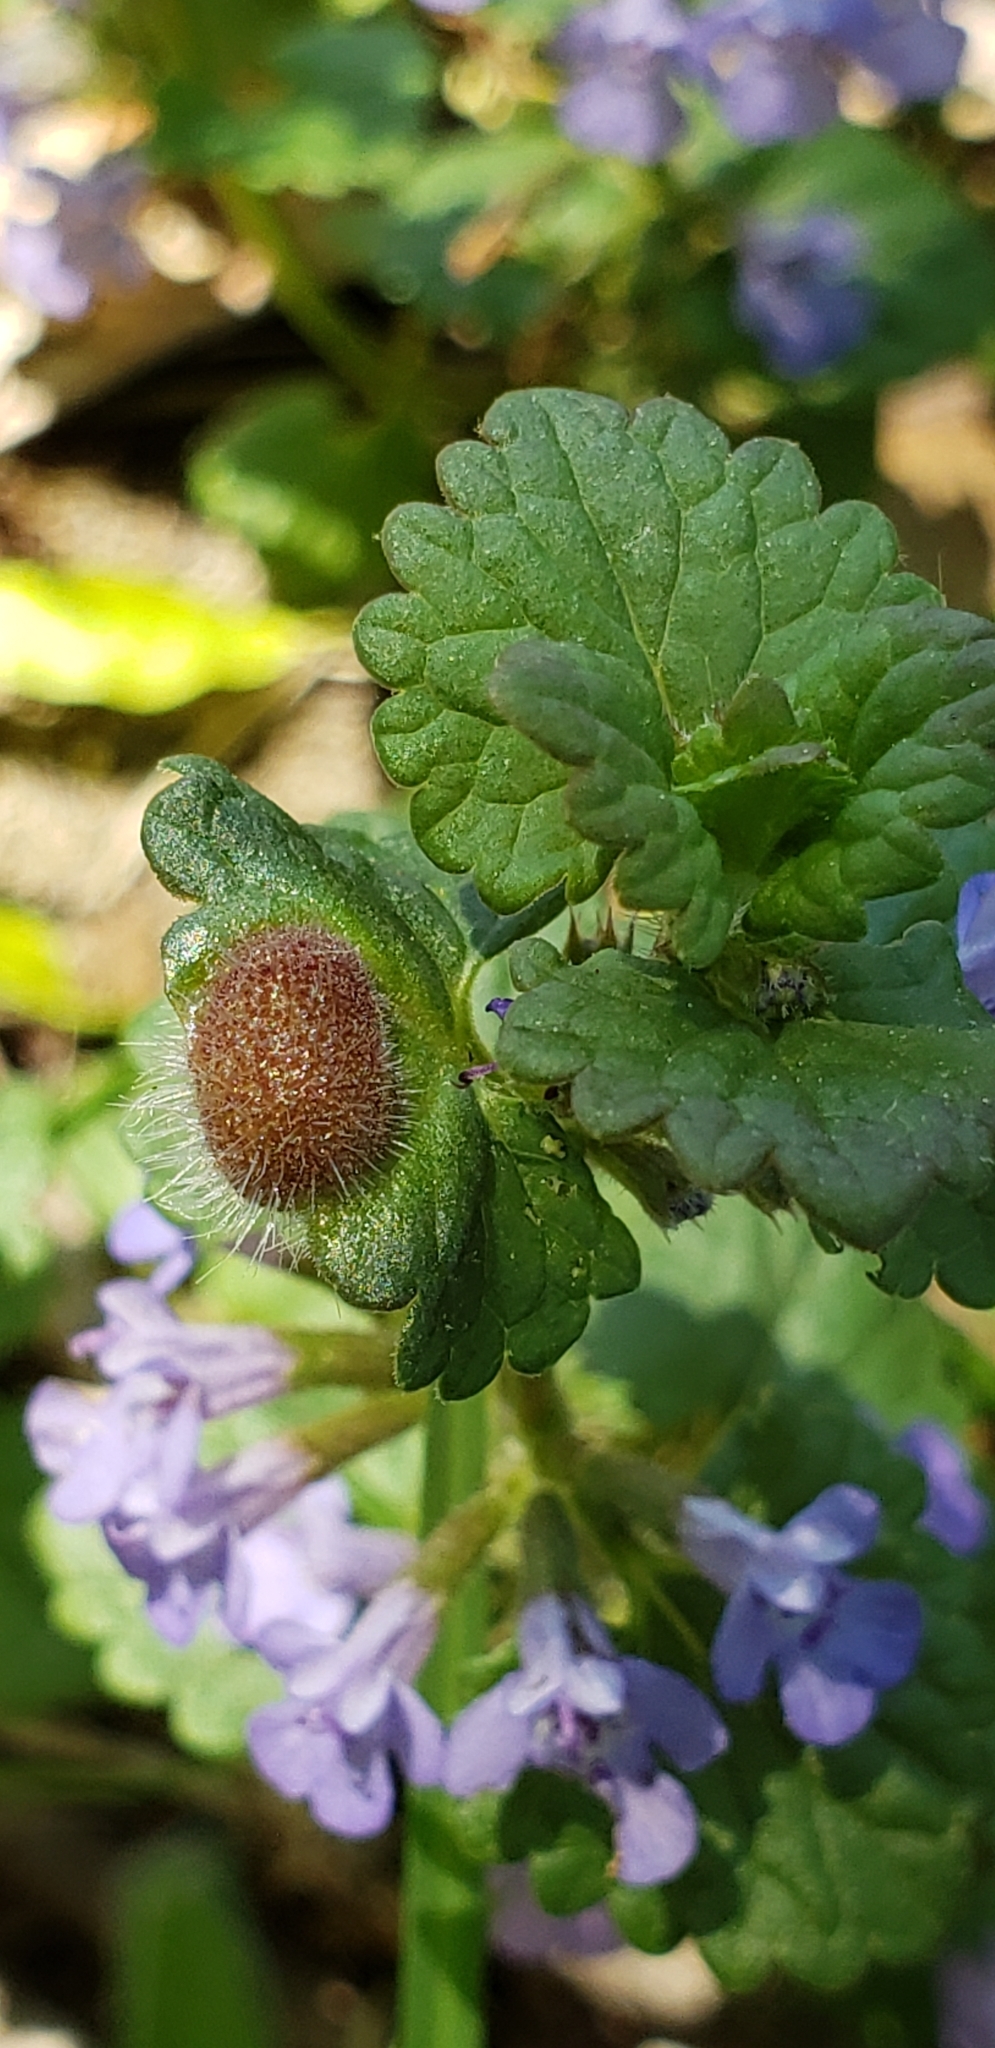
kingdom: Animalia
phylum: Arthropoda
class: Insecta
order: Hymenoptera
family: Cynipidae
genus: Liposthenes
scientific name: Liposthenes glechomae
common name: Gall wasp
